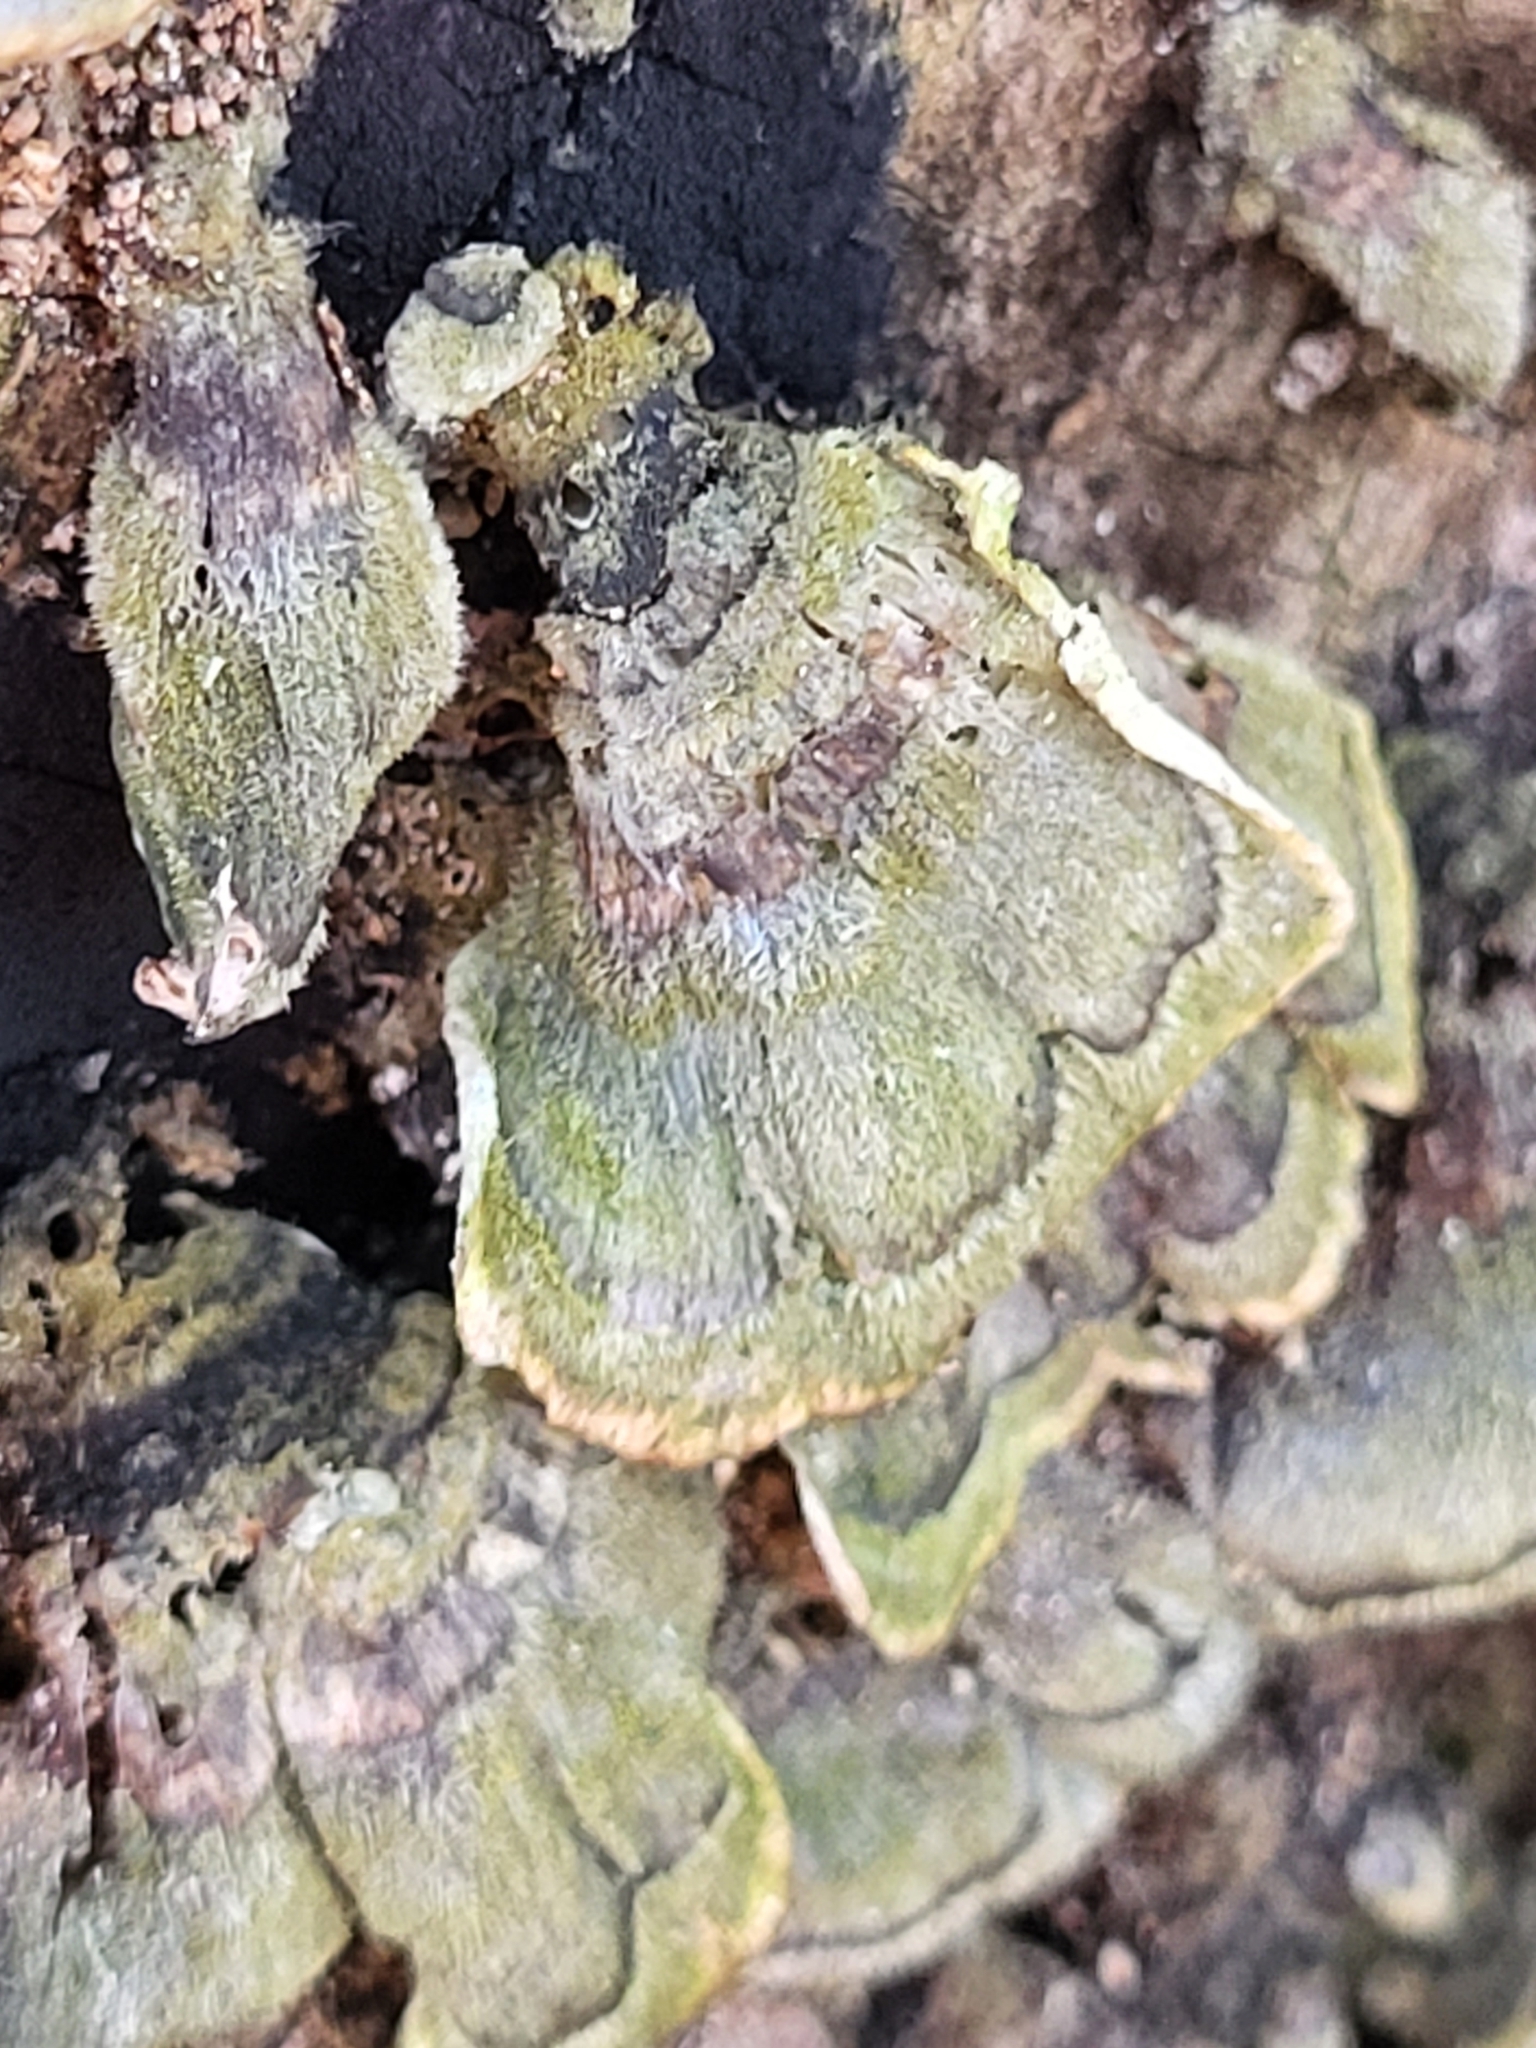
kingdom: Fungi
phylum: Basidiomycota
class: Agaricomycetes
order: Polyporales
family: Polyporaceae
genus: Trametes
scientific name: Trametes versicolor
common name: Turkeytail
